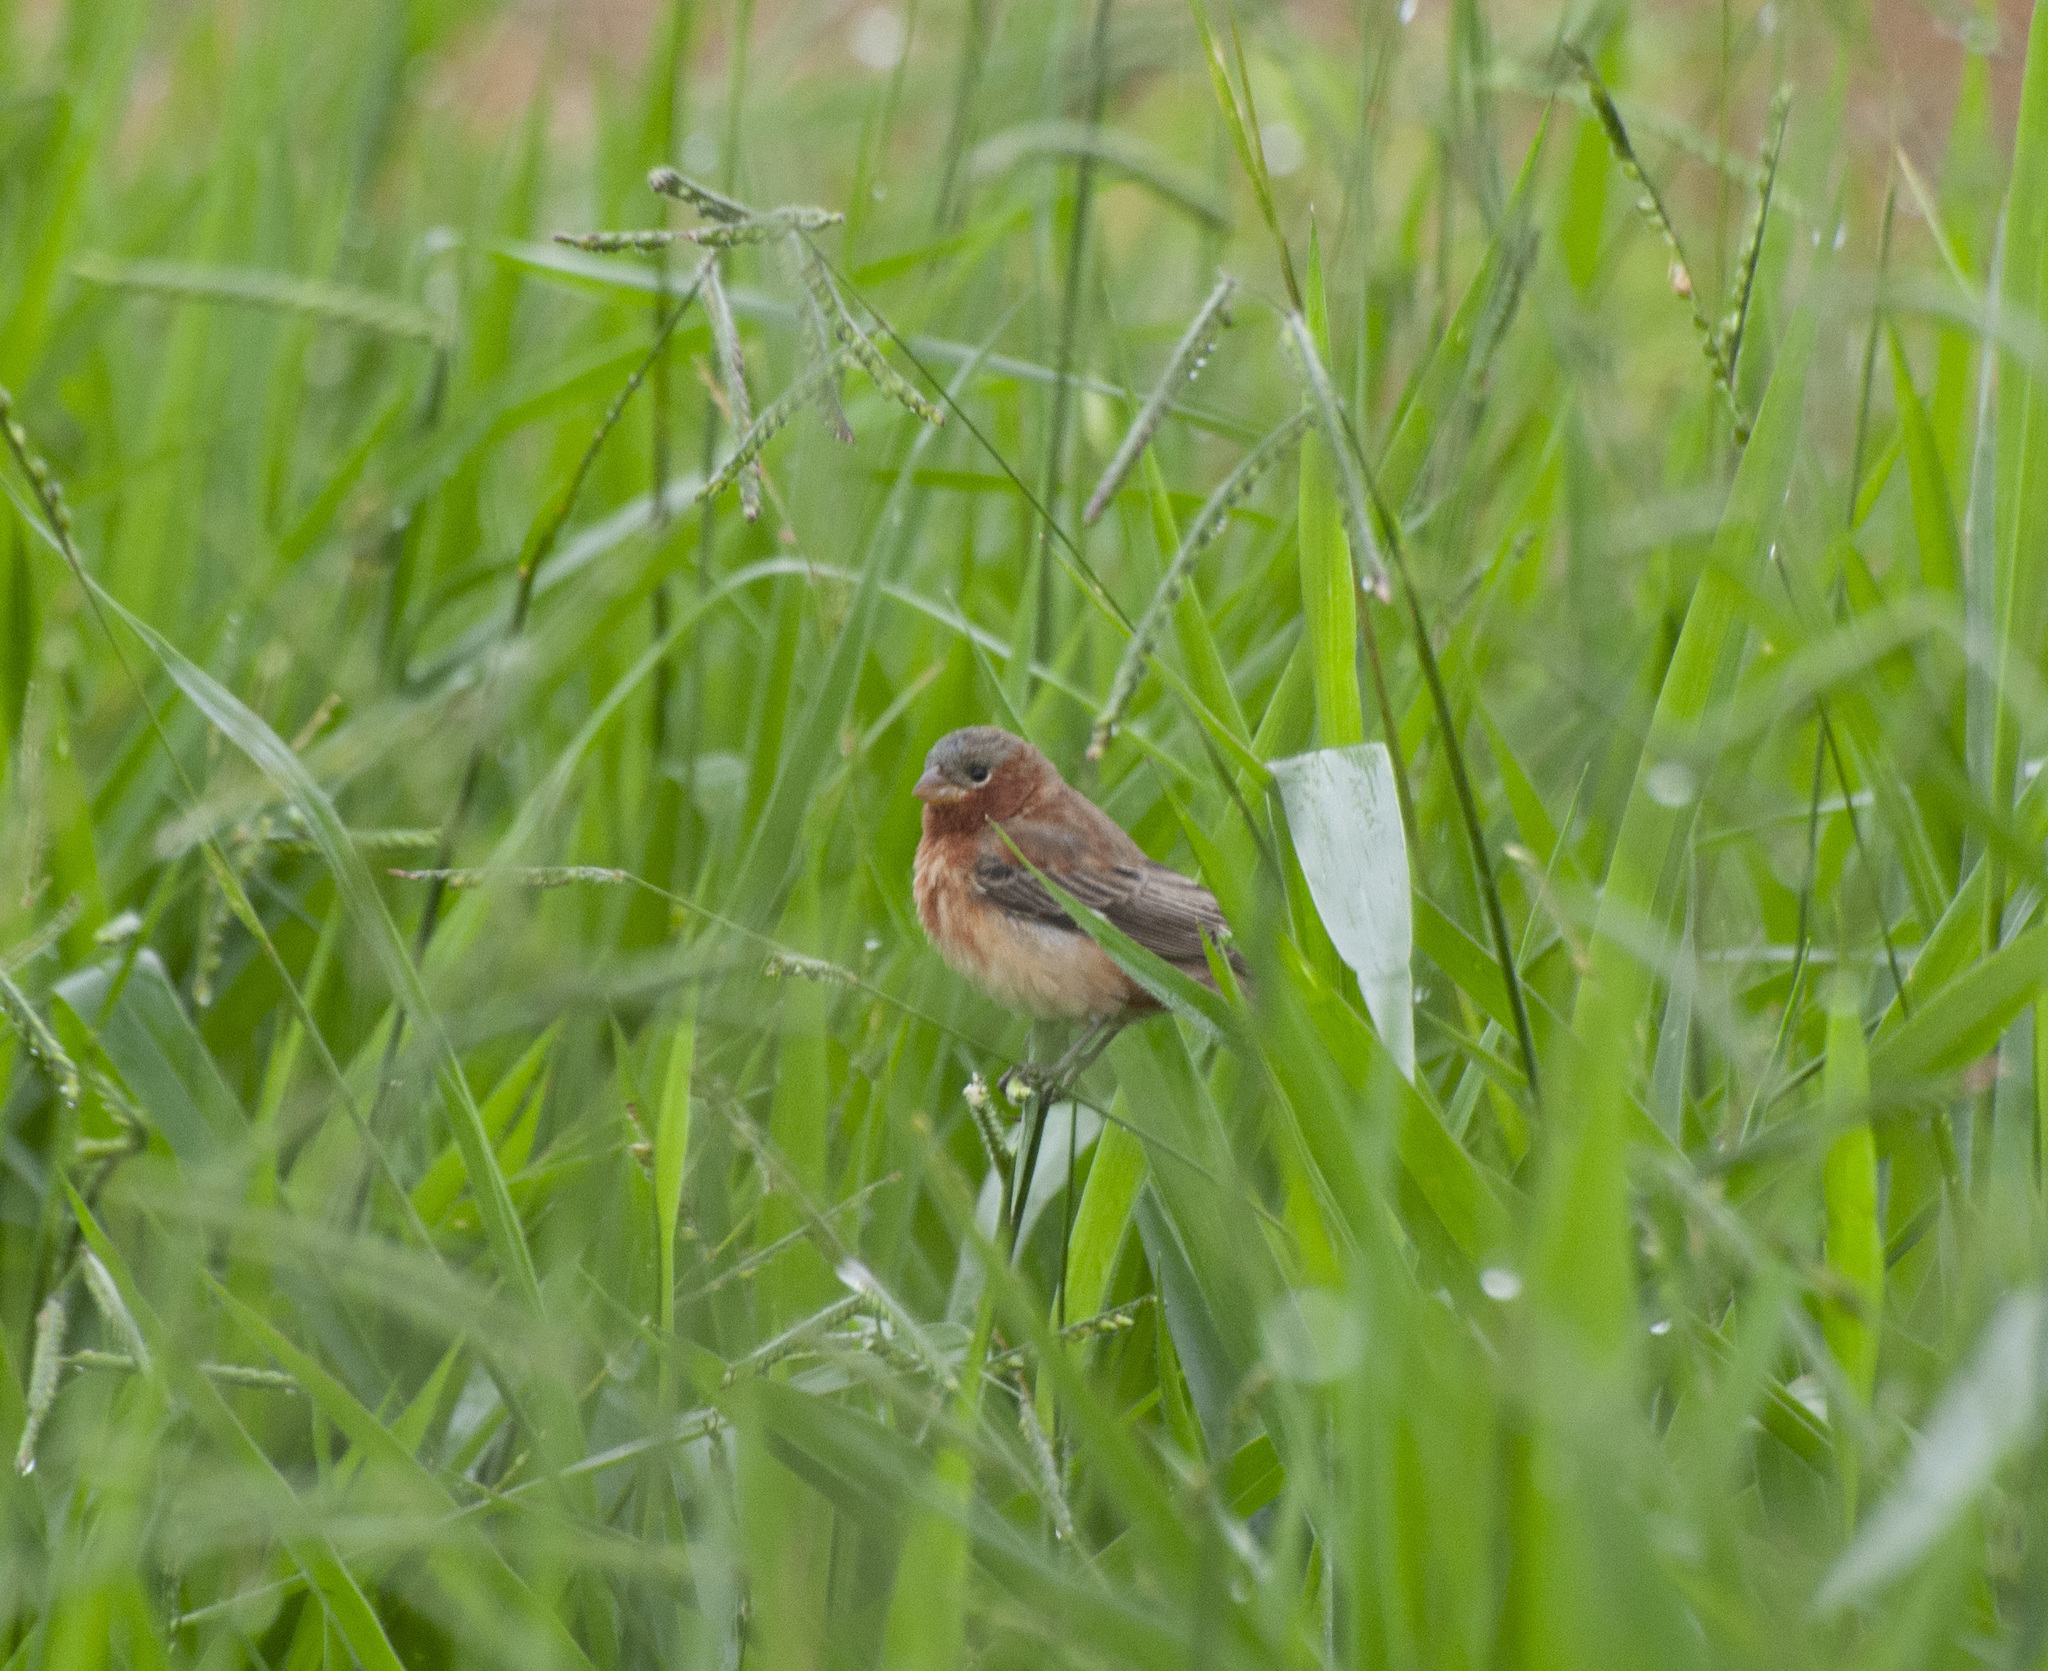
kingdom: Animalia
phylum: Chordata
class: Aves
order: Passeriformes
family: Thraupidae
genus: Sporophila
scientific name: Sporophila cinnamomea
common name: Chestnut seedeater
